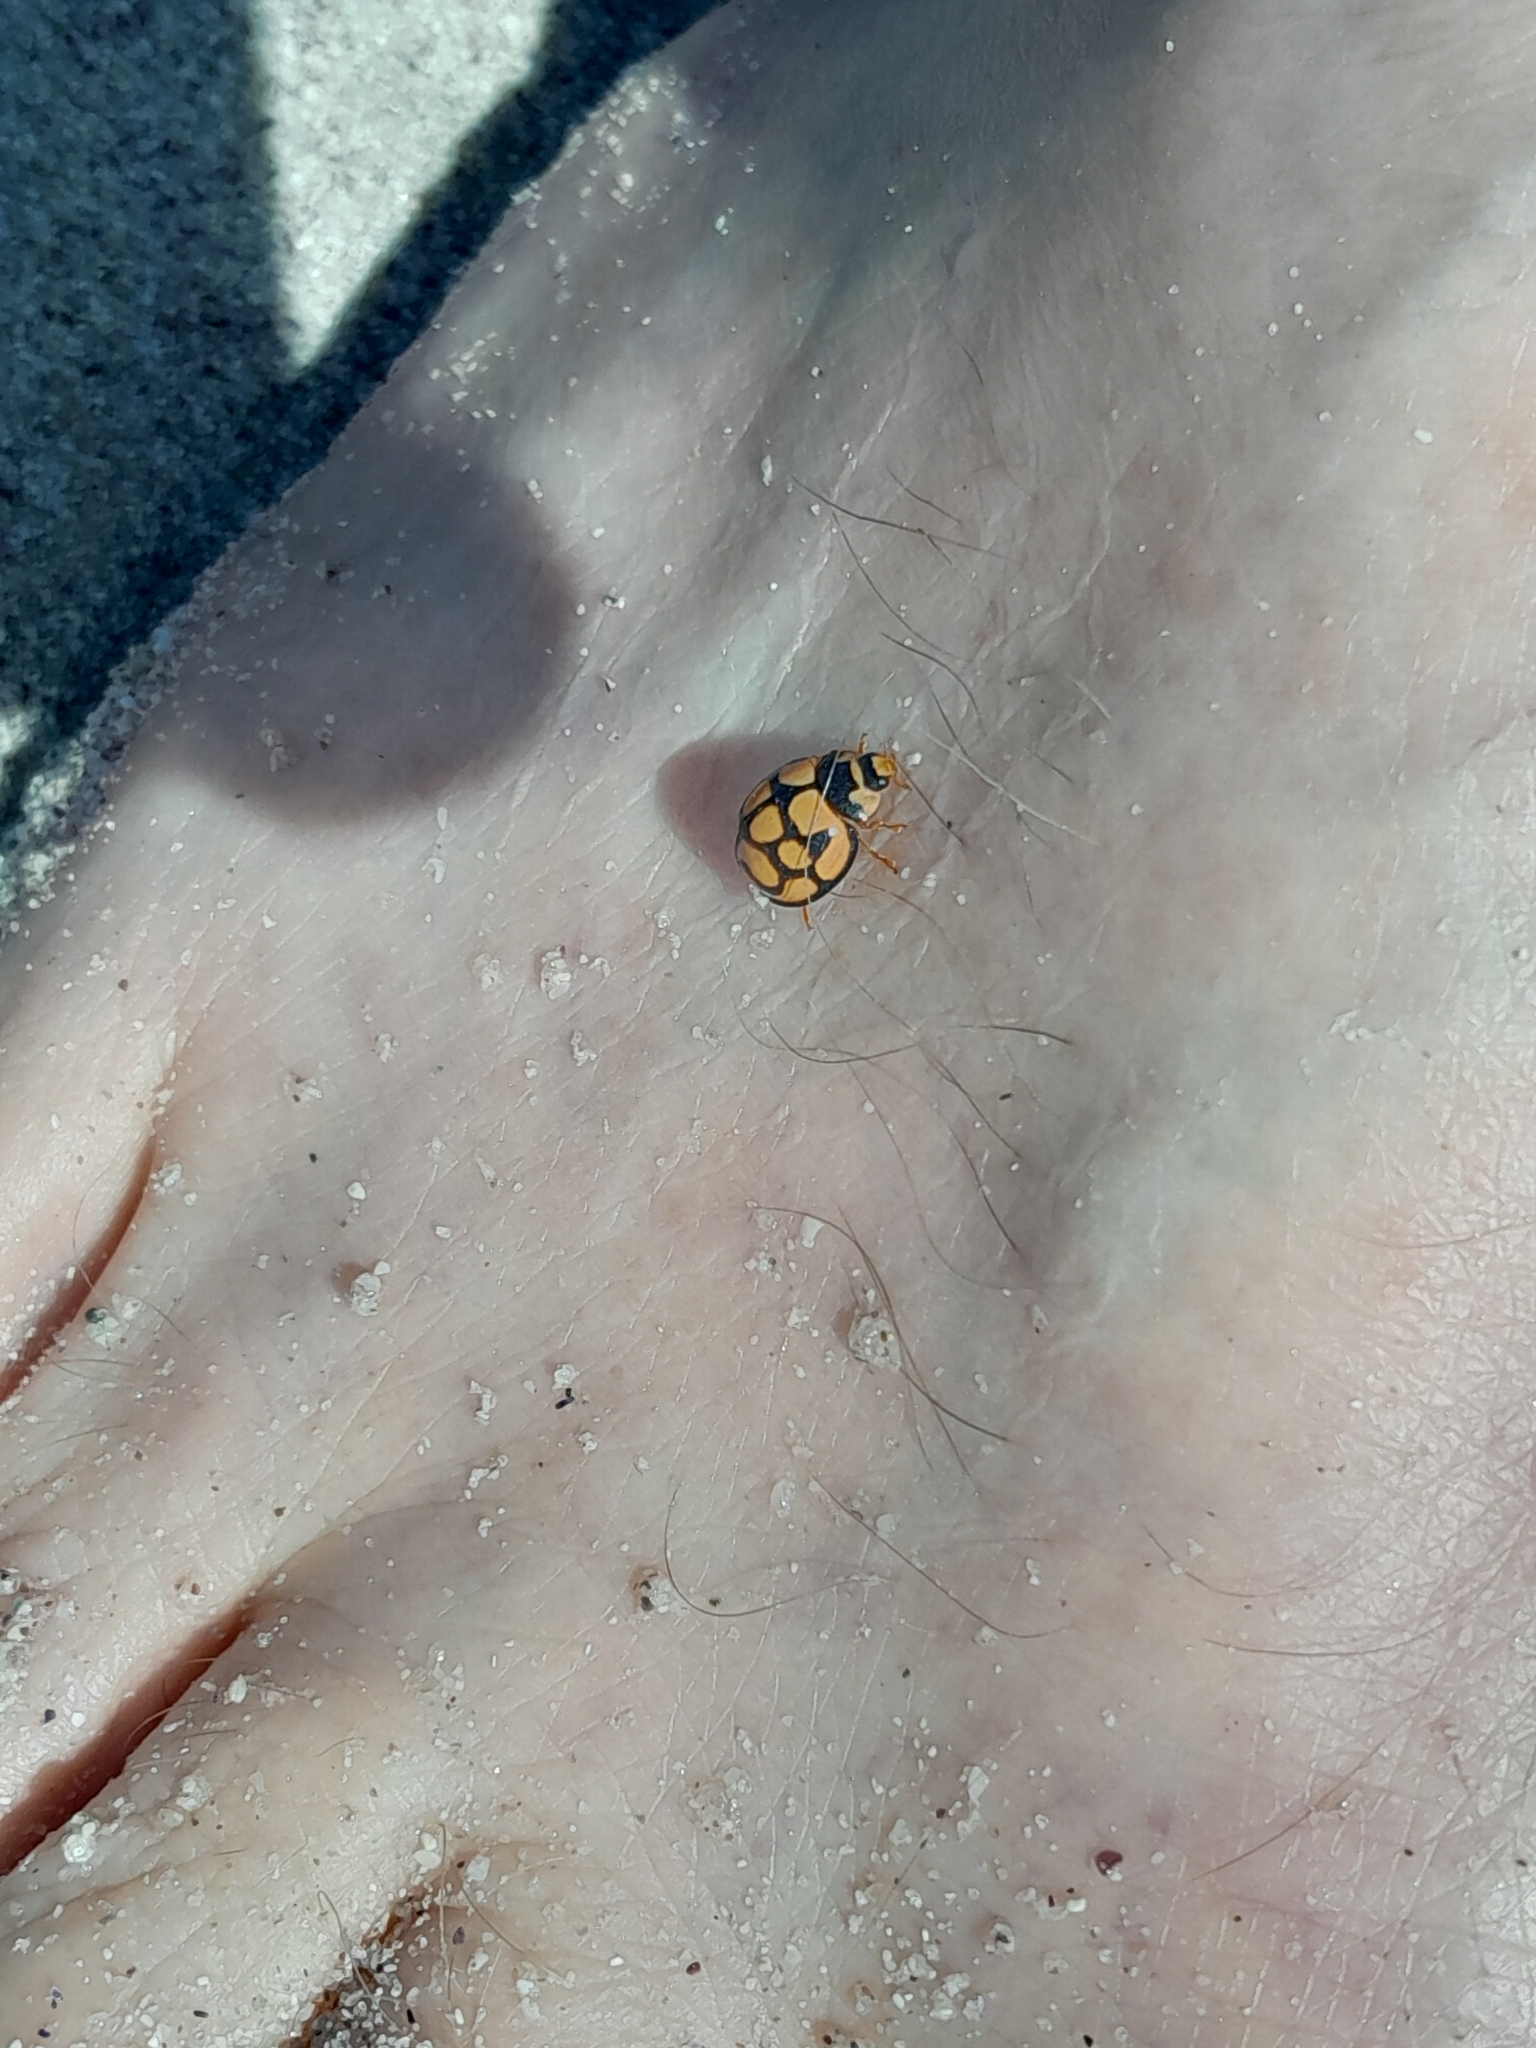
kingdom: Animalia
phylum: Arthropoda
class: Insecta
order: Coleoptera
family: Coccinellidae
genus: Cheilomenes
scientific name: Cheilomenes lunata
